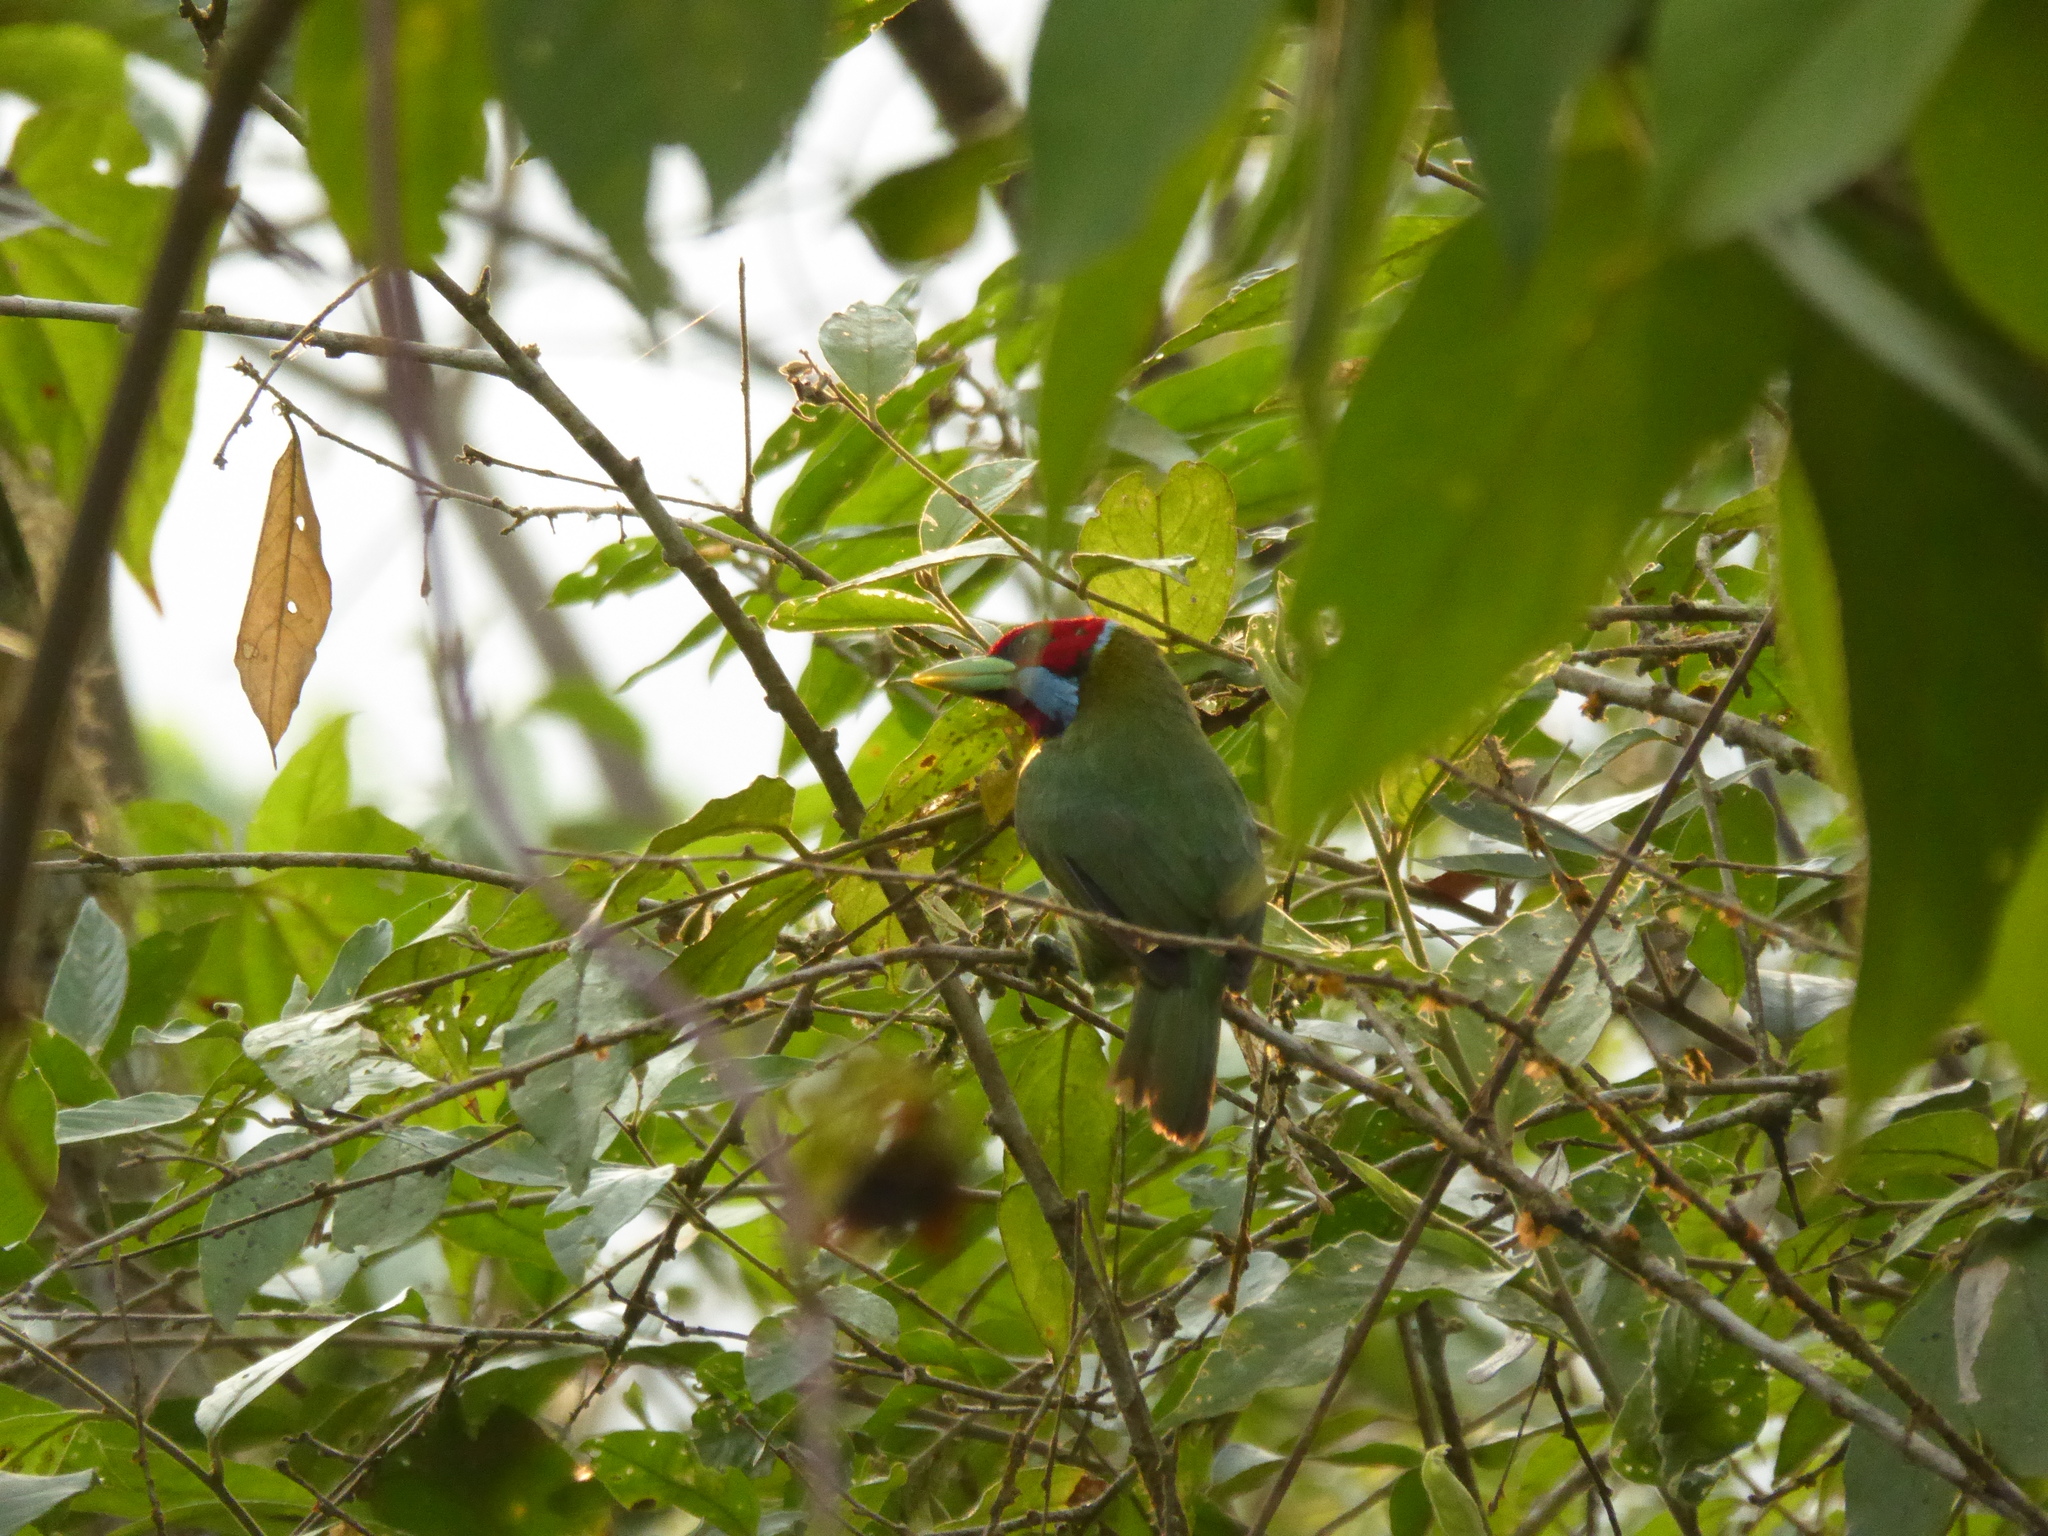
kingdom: Animalia
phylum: Chordata
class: Aves
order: Piciformes
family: Capitonidae
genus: Eubucco
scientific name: Eubucco versicolor
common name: Versicolored barbet
